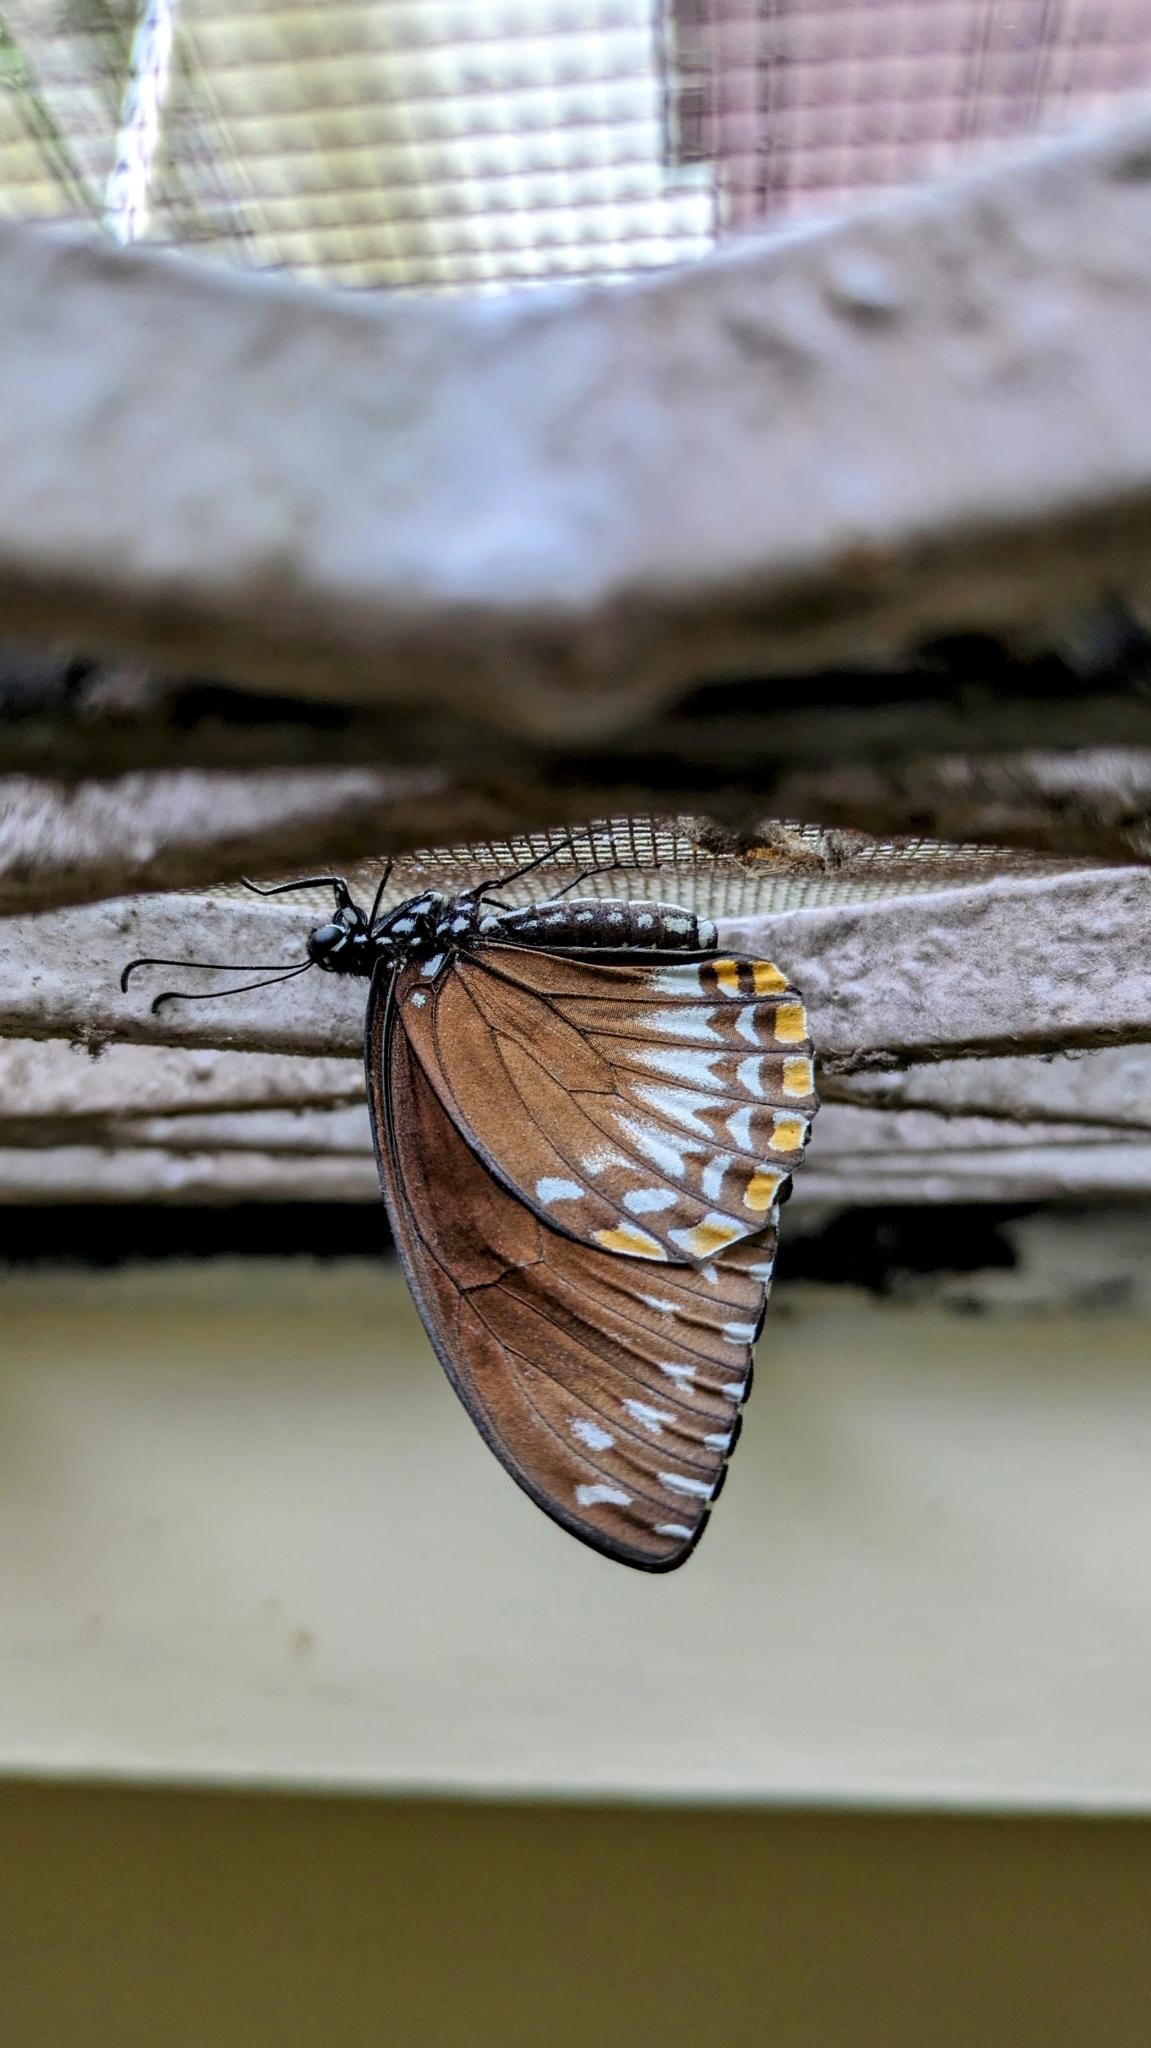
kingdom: Animalia
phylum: Arthropoda
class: Insecta
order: Lepidoptera
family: Papilionidae
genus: Chilasa
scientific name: Chilasa clytia
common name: Common mime
